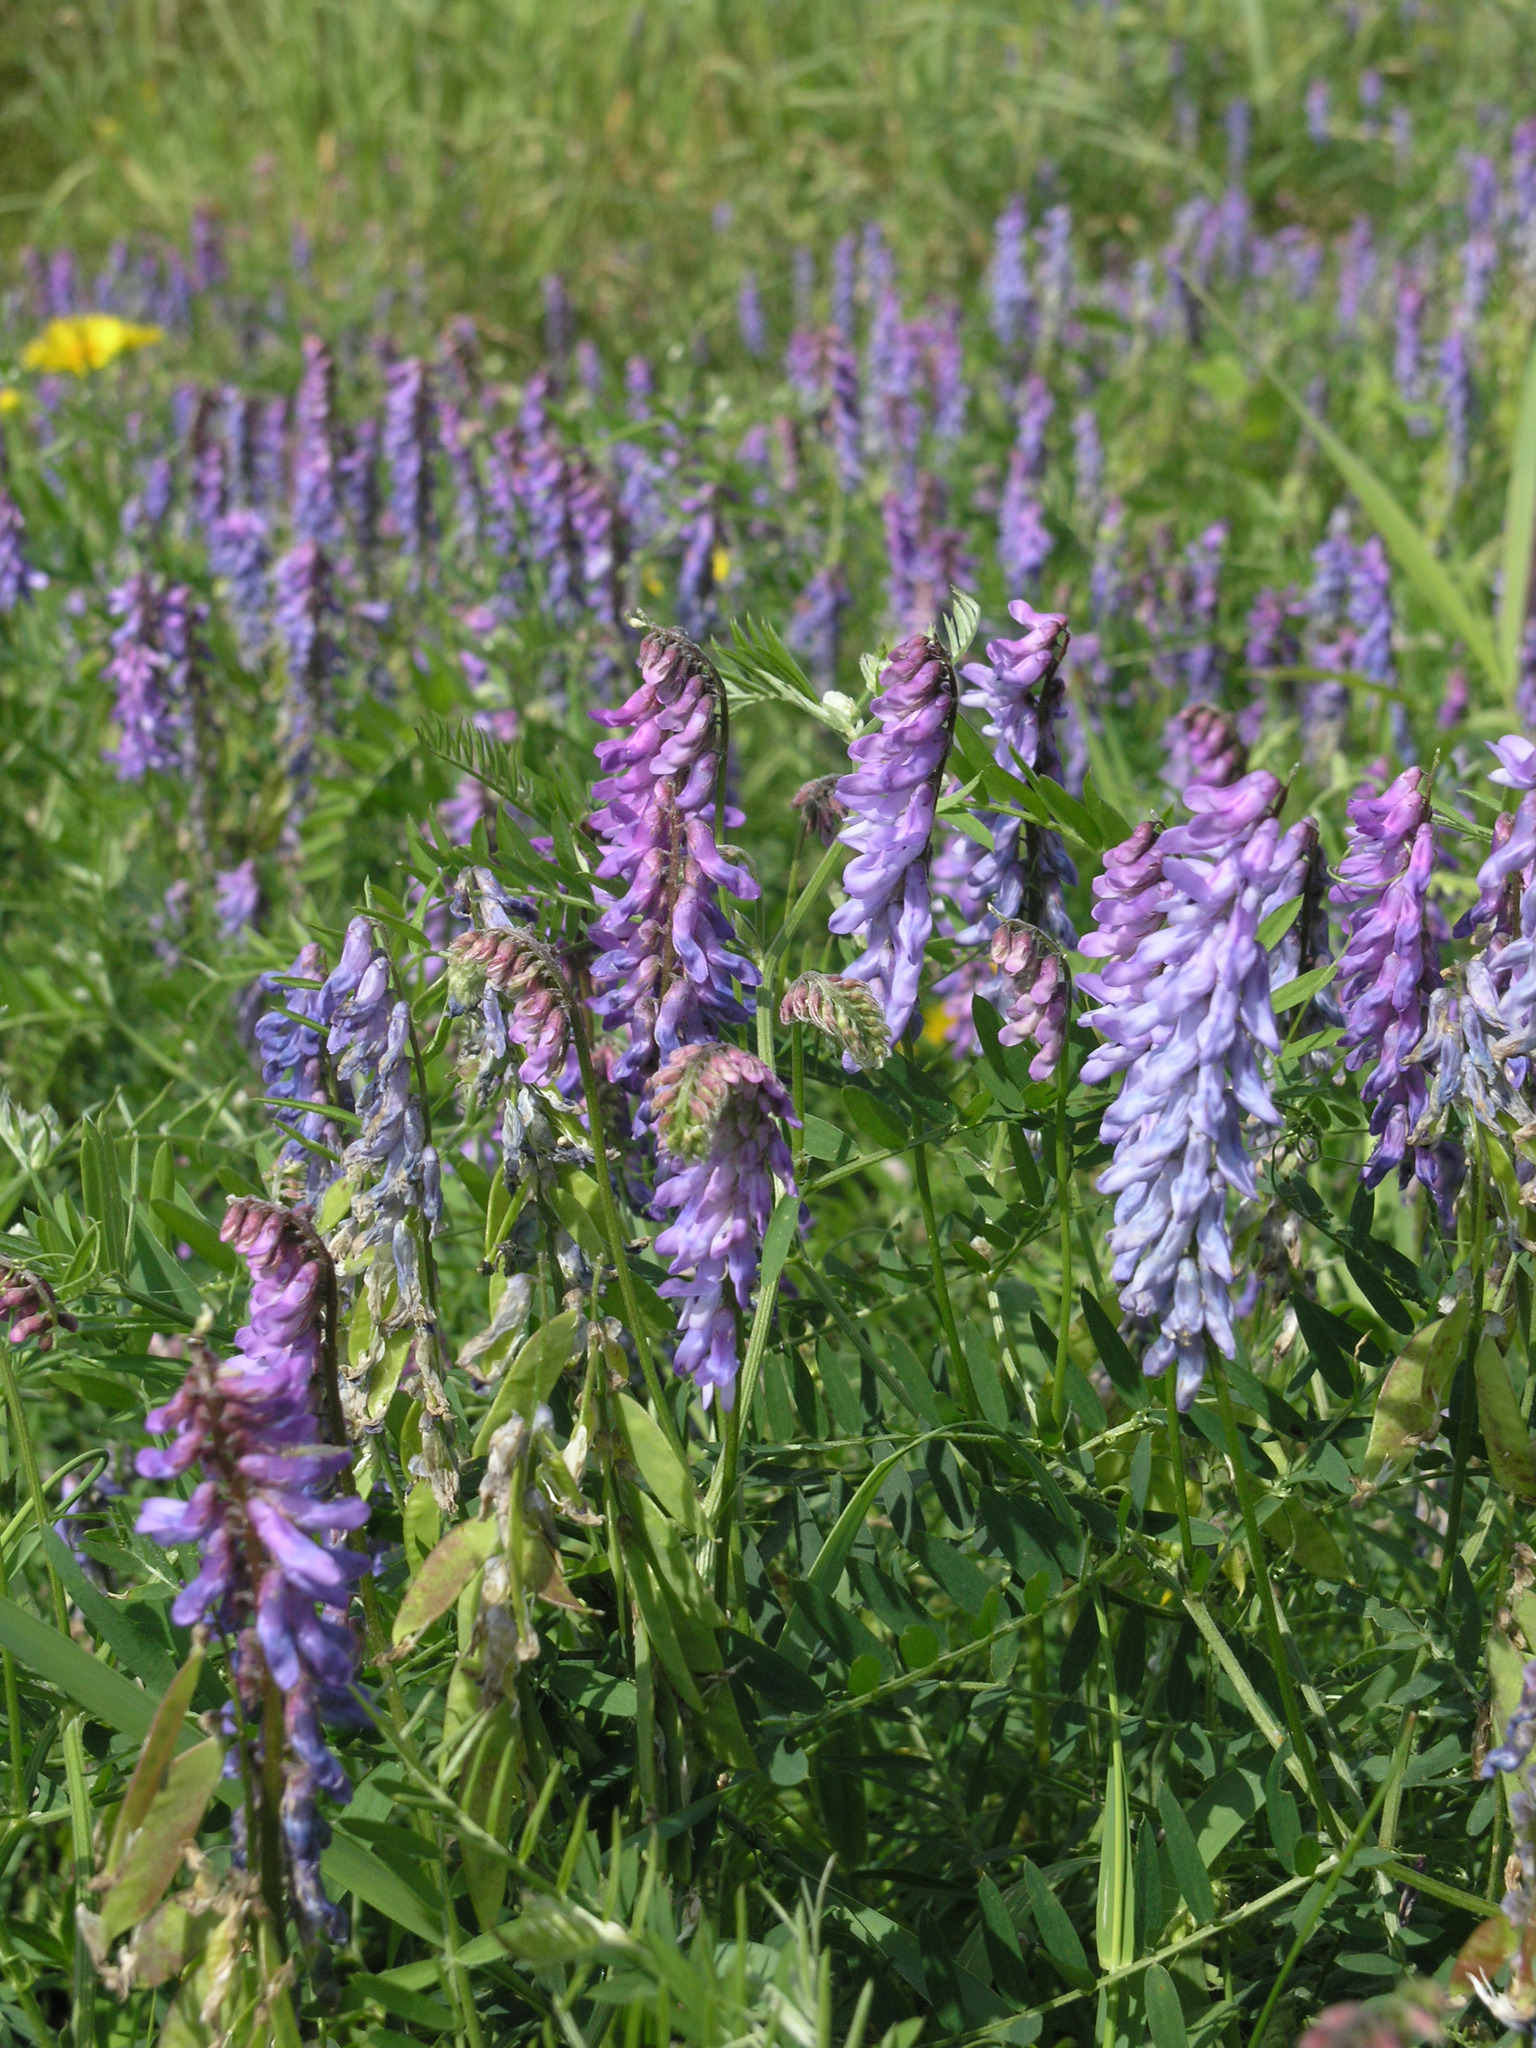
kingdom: Plantae
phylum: Tracheophyta
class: Magnoliopsida
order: Fabales
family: Fabaceae
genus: Vicia
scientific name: Vicia cracca
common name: Bird vetch
